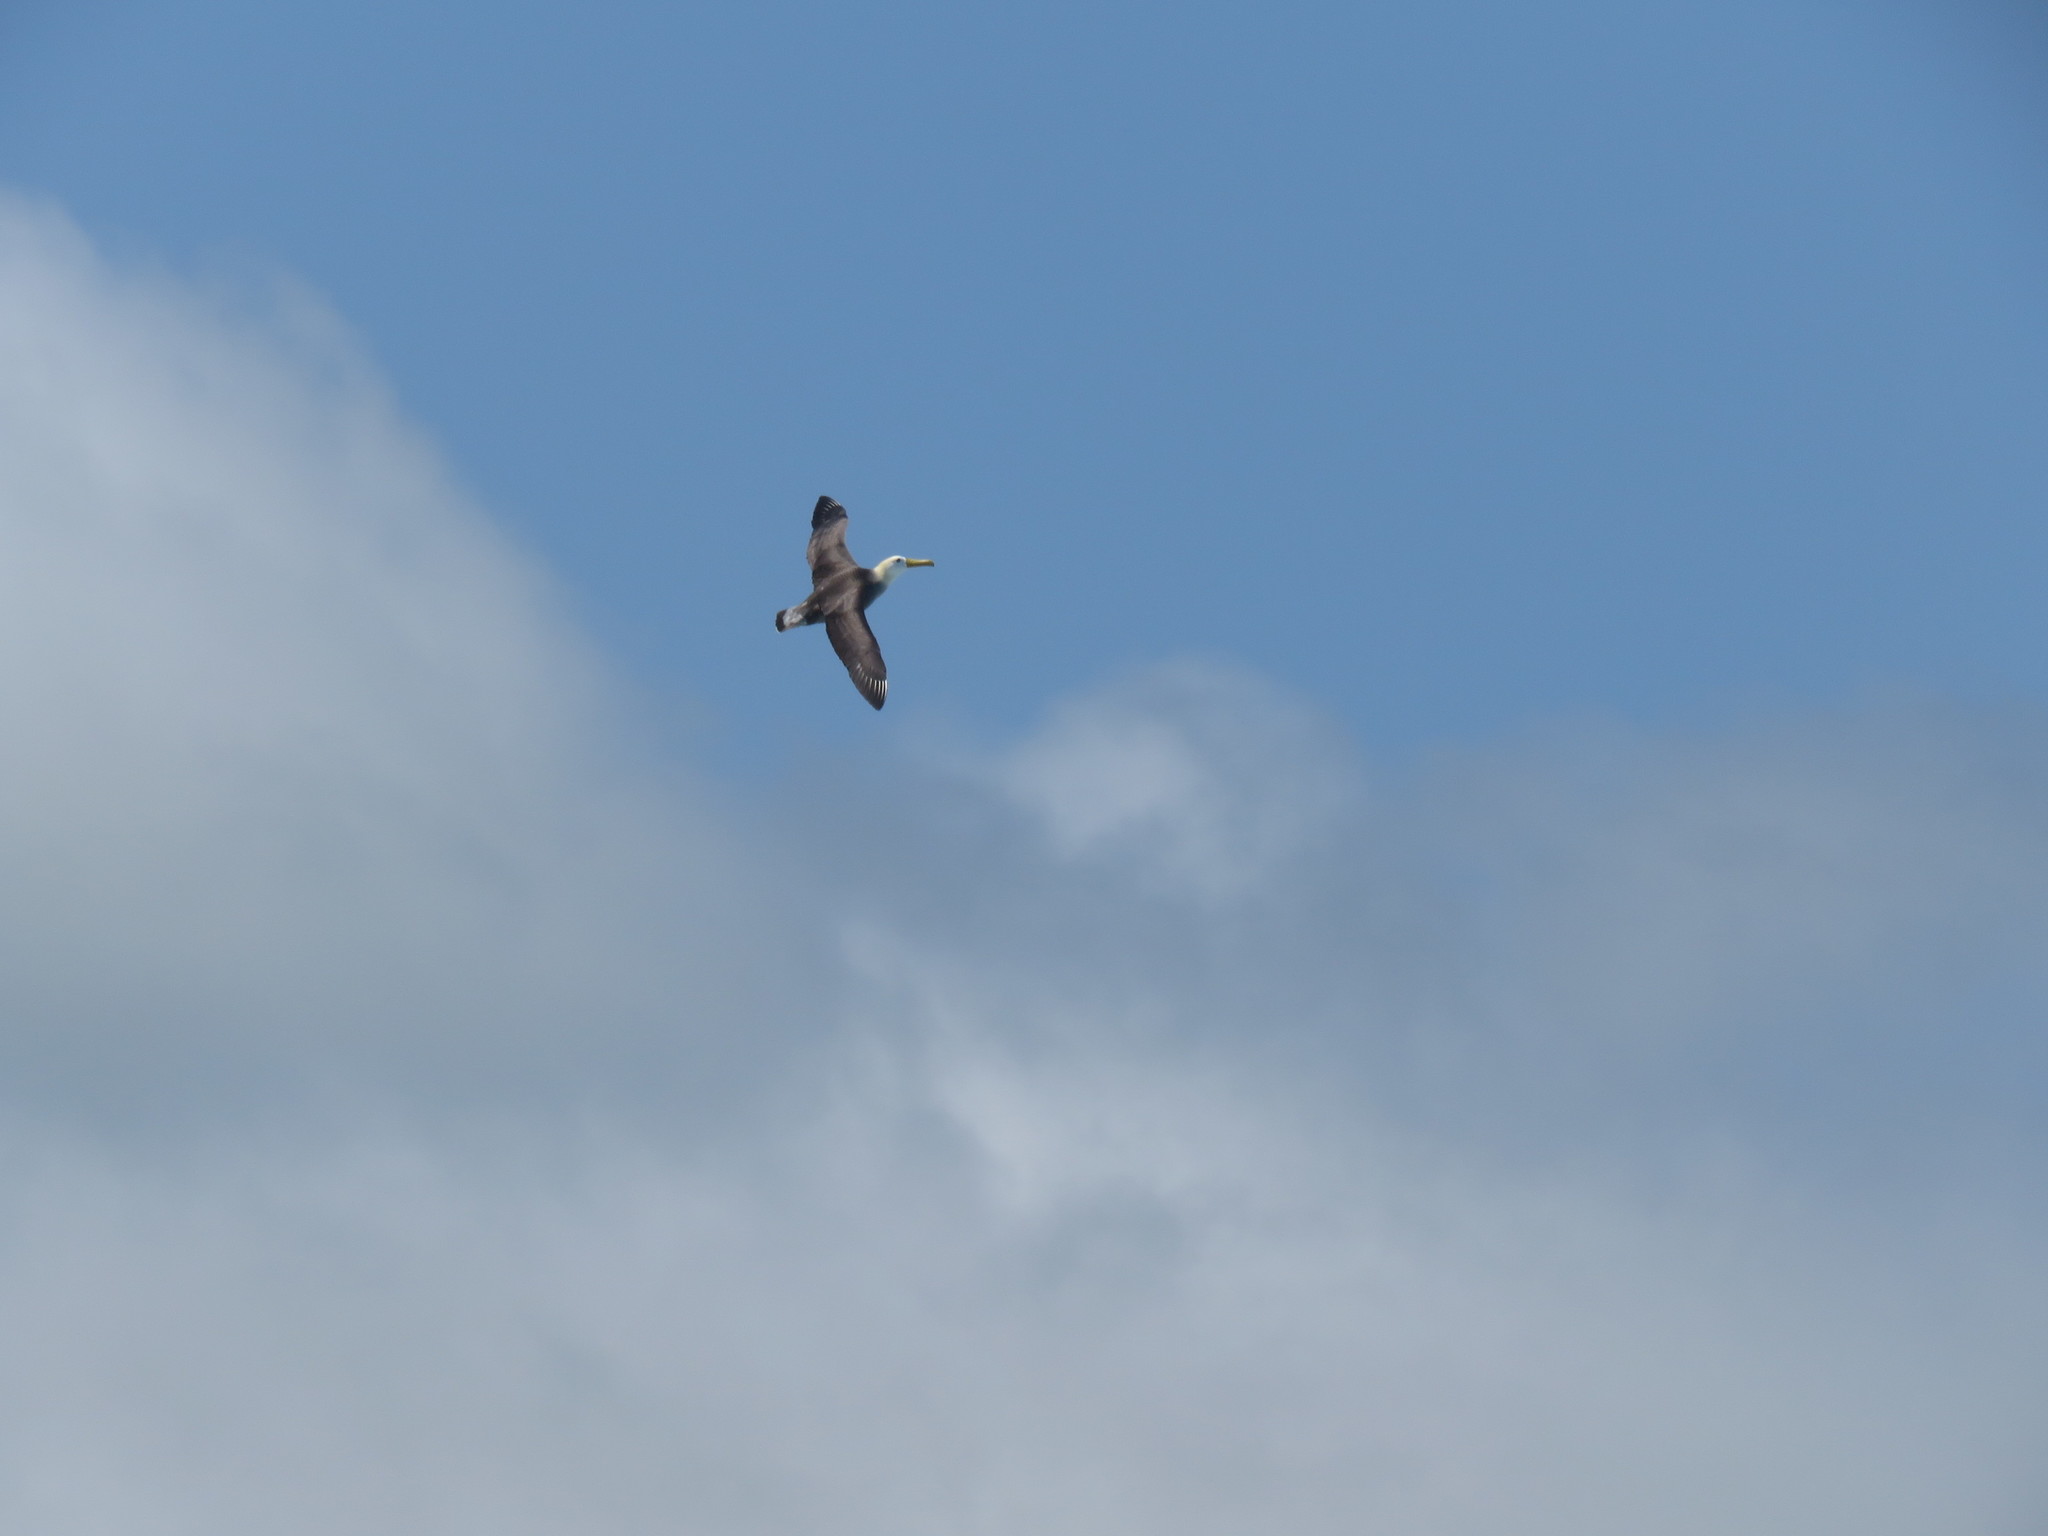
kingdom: Animalia
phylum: Chordata
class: Aves
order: Procellariiformes
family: Diomedeidae
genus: Phoebastria
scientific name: Phoebastria irrorata
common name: Waved albatross
